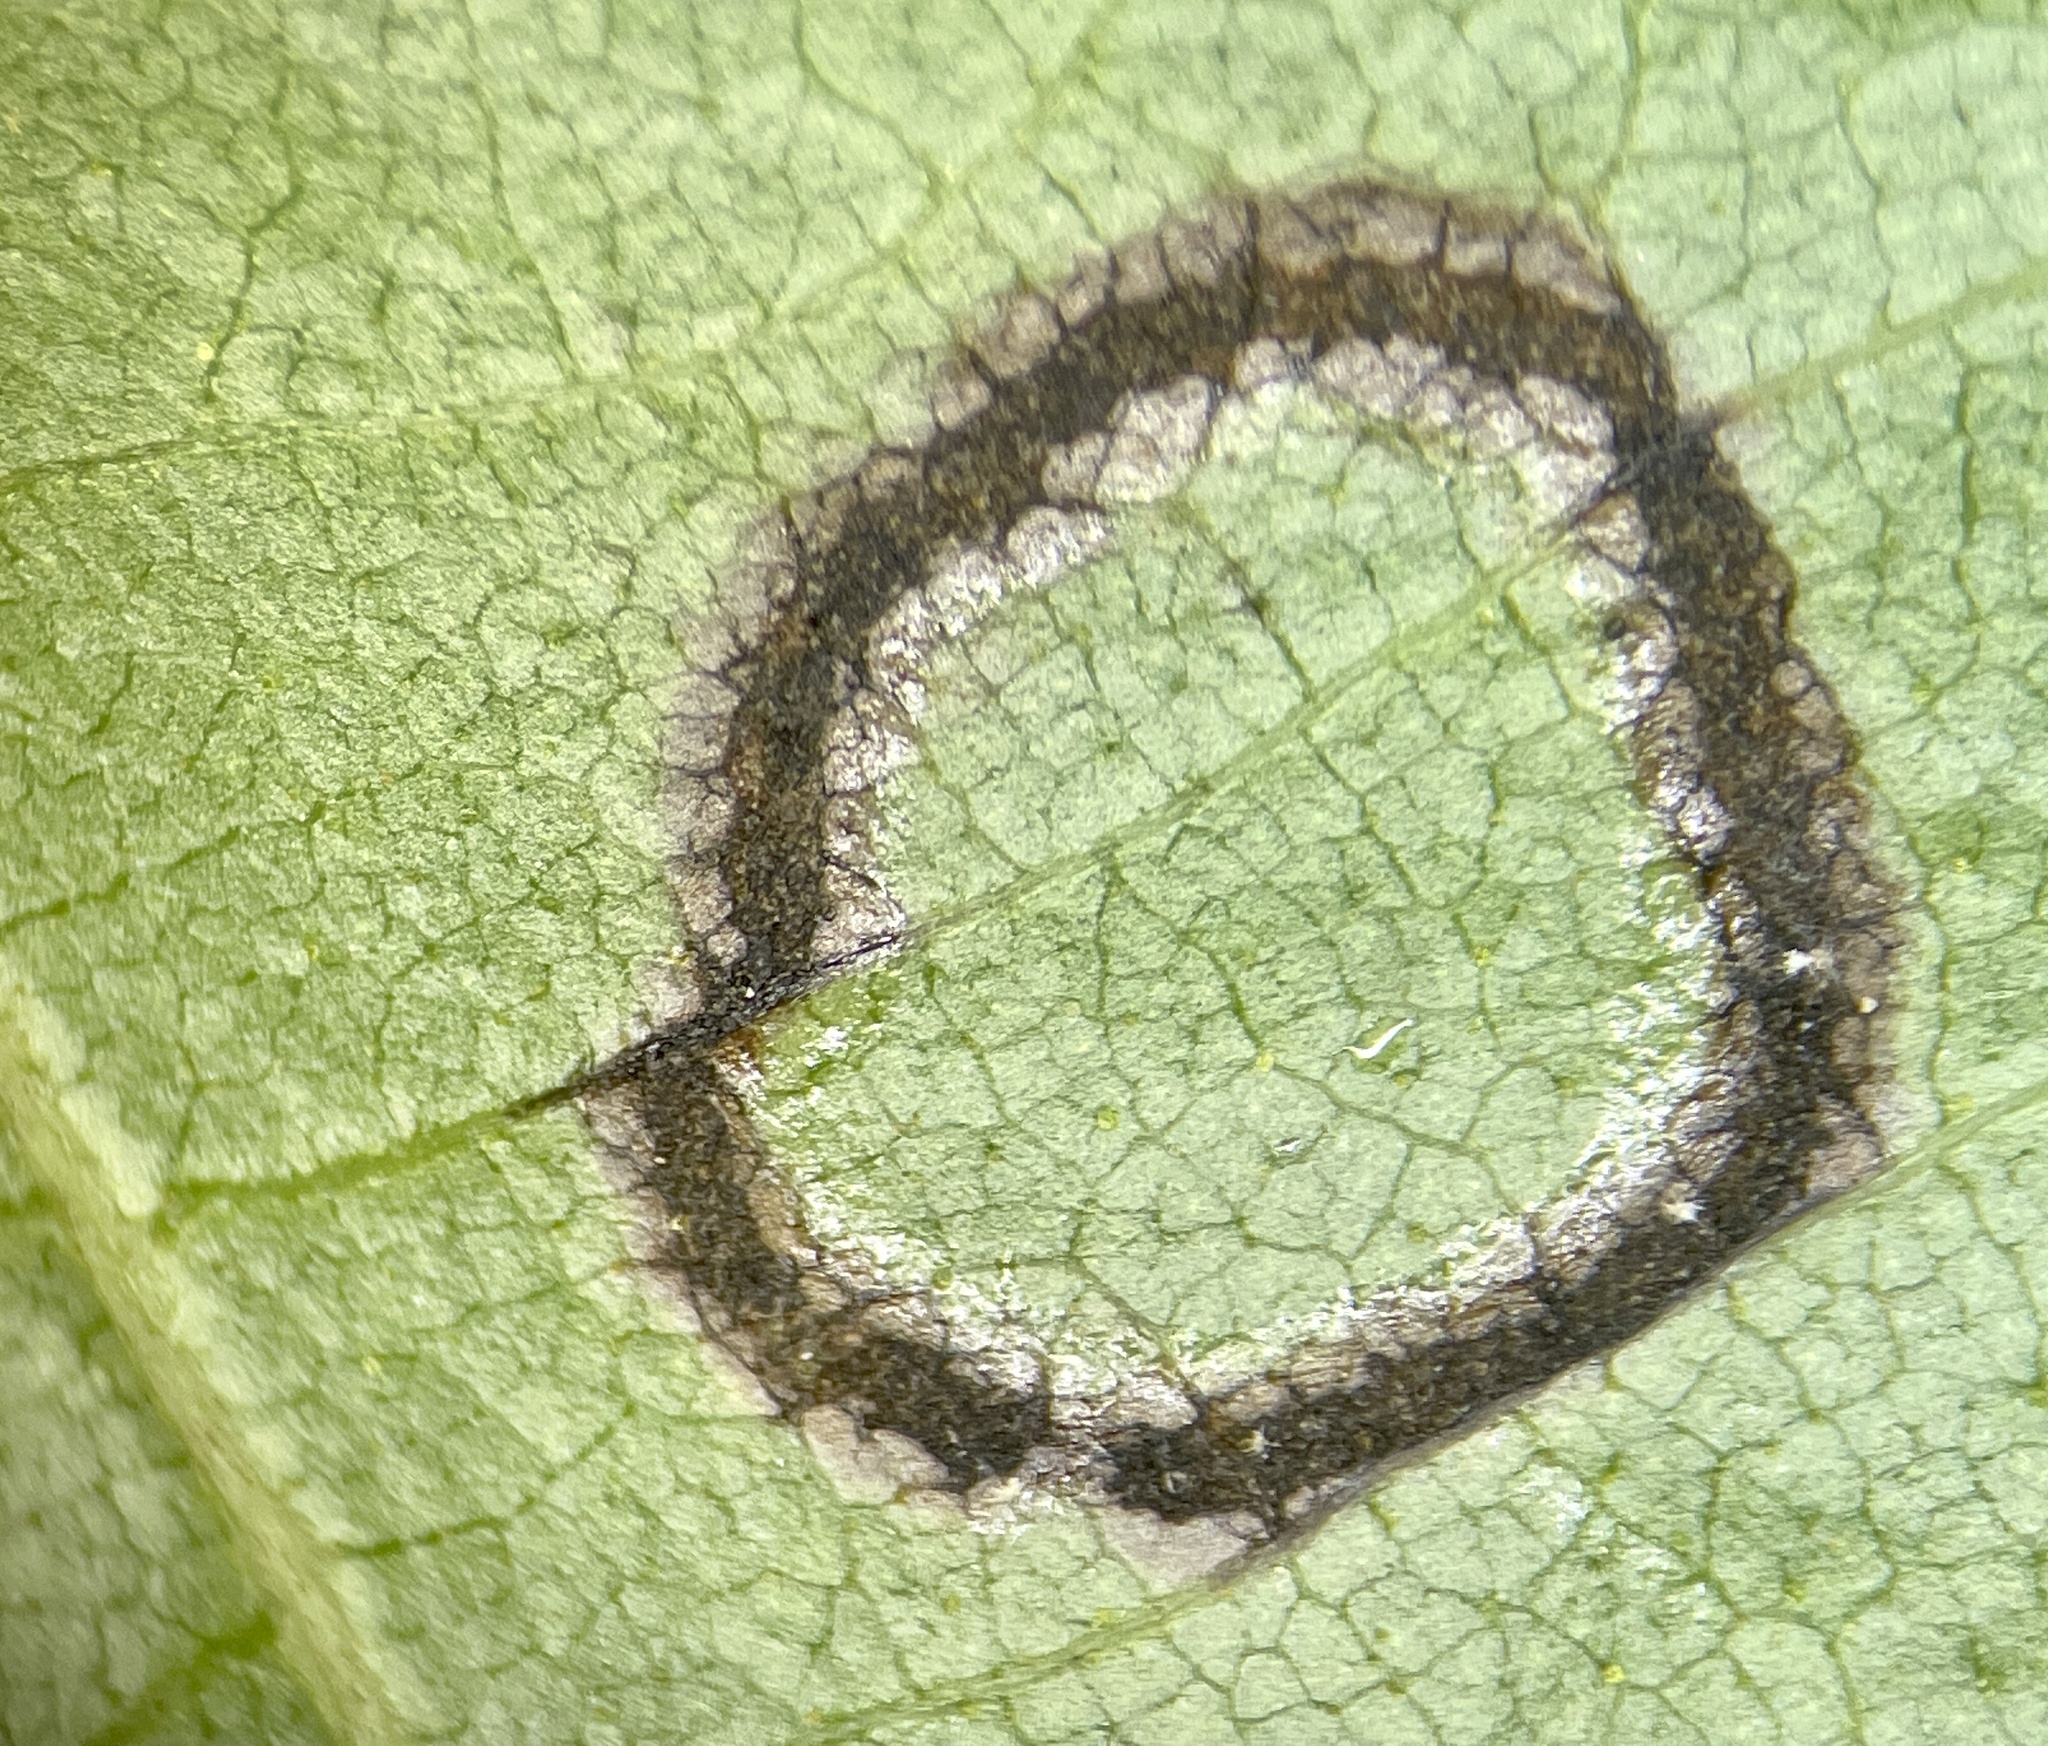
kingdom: Animalia
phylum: Arthropoda
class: Insecta
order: Diptera
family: Cecidomyiidae
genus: Gliaspilota
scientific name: Gliaspilota glutinosa
